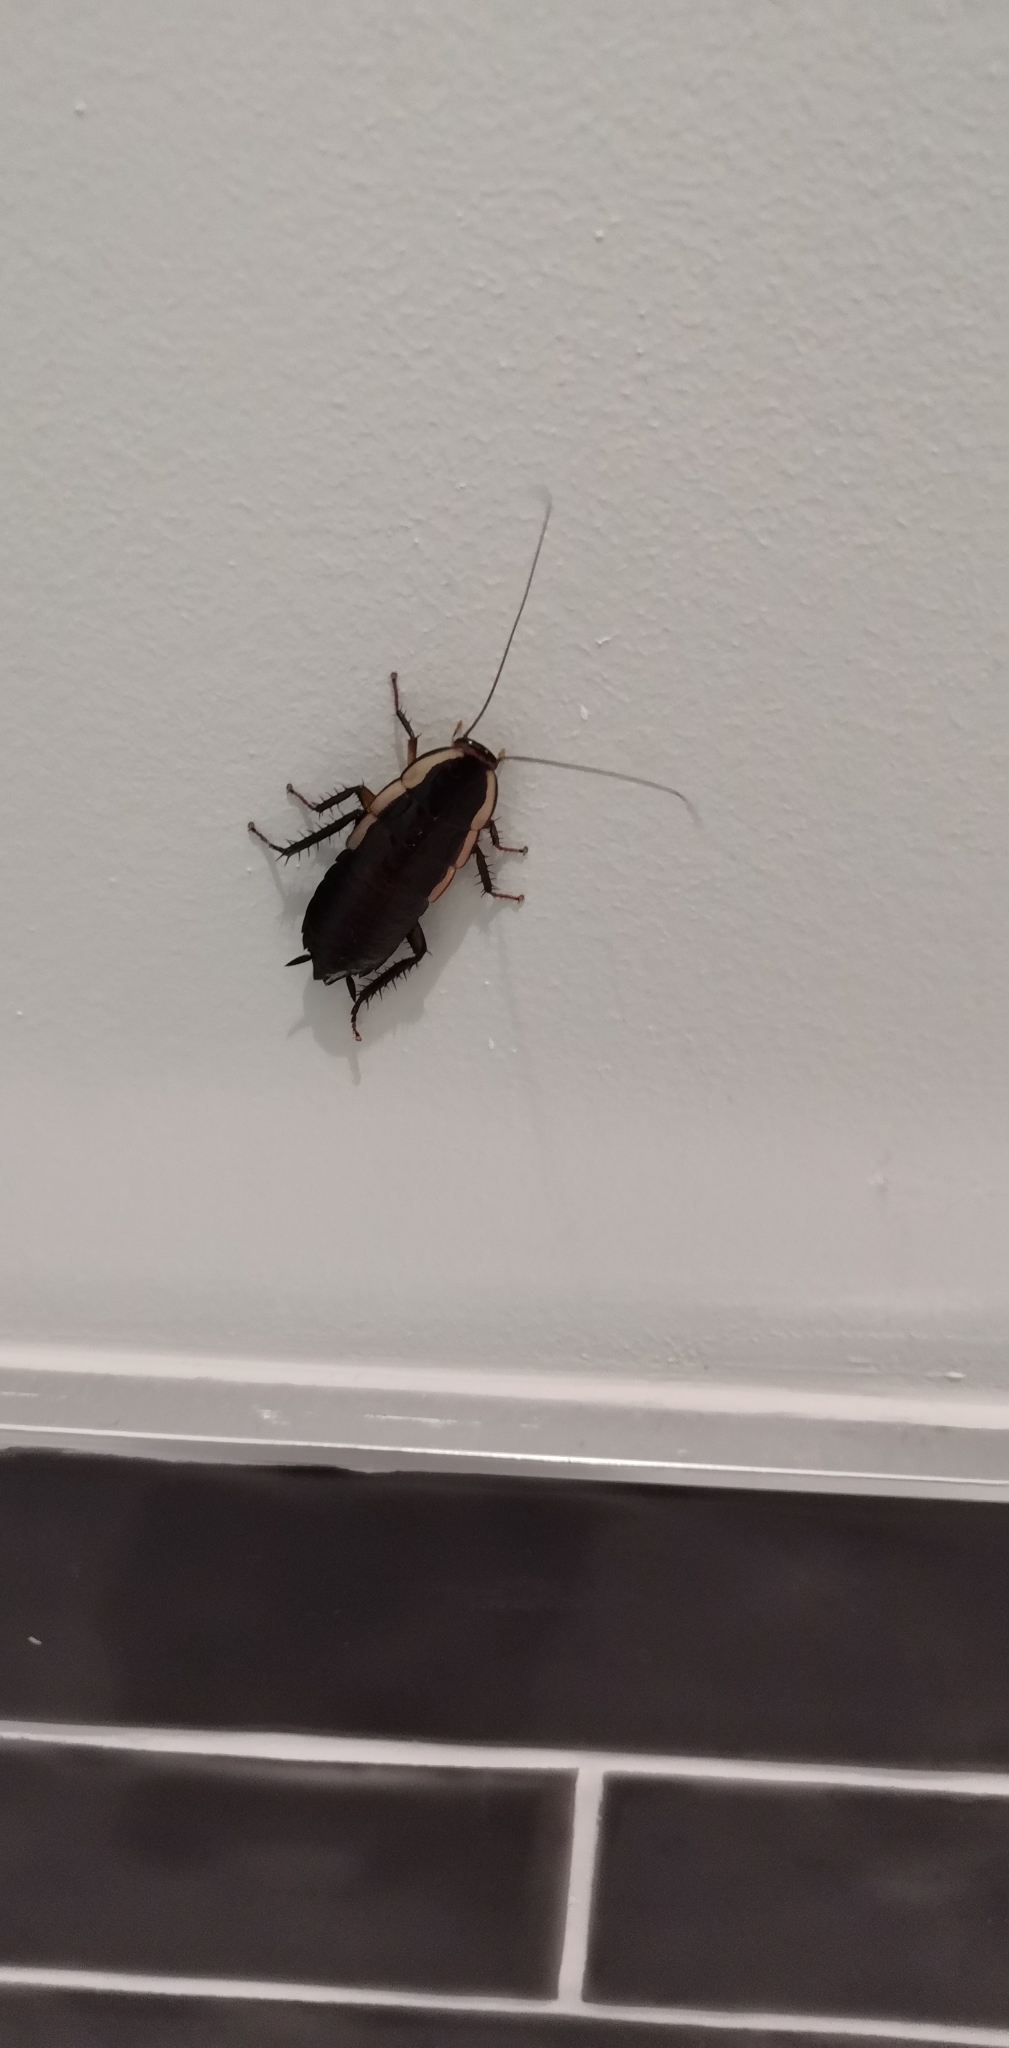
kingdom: Animalia
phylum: Arthropoda
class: Insecta
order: Blattodea
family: Blattidae
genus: Drymaplaneta
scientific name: Drymaplaneta semivitta
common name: Gisborne cockroach
